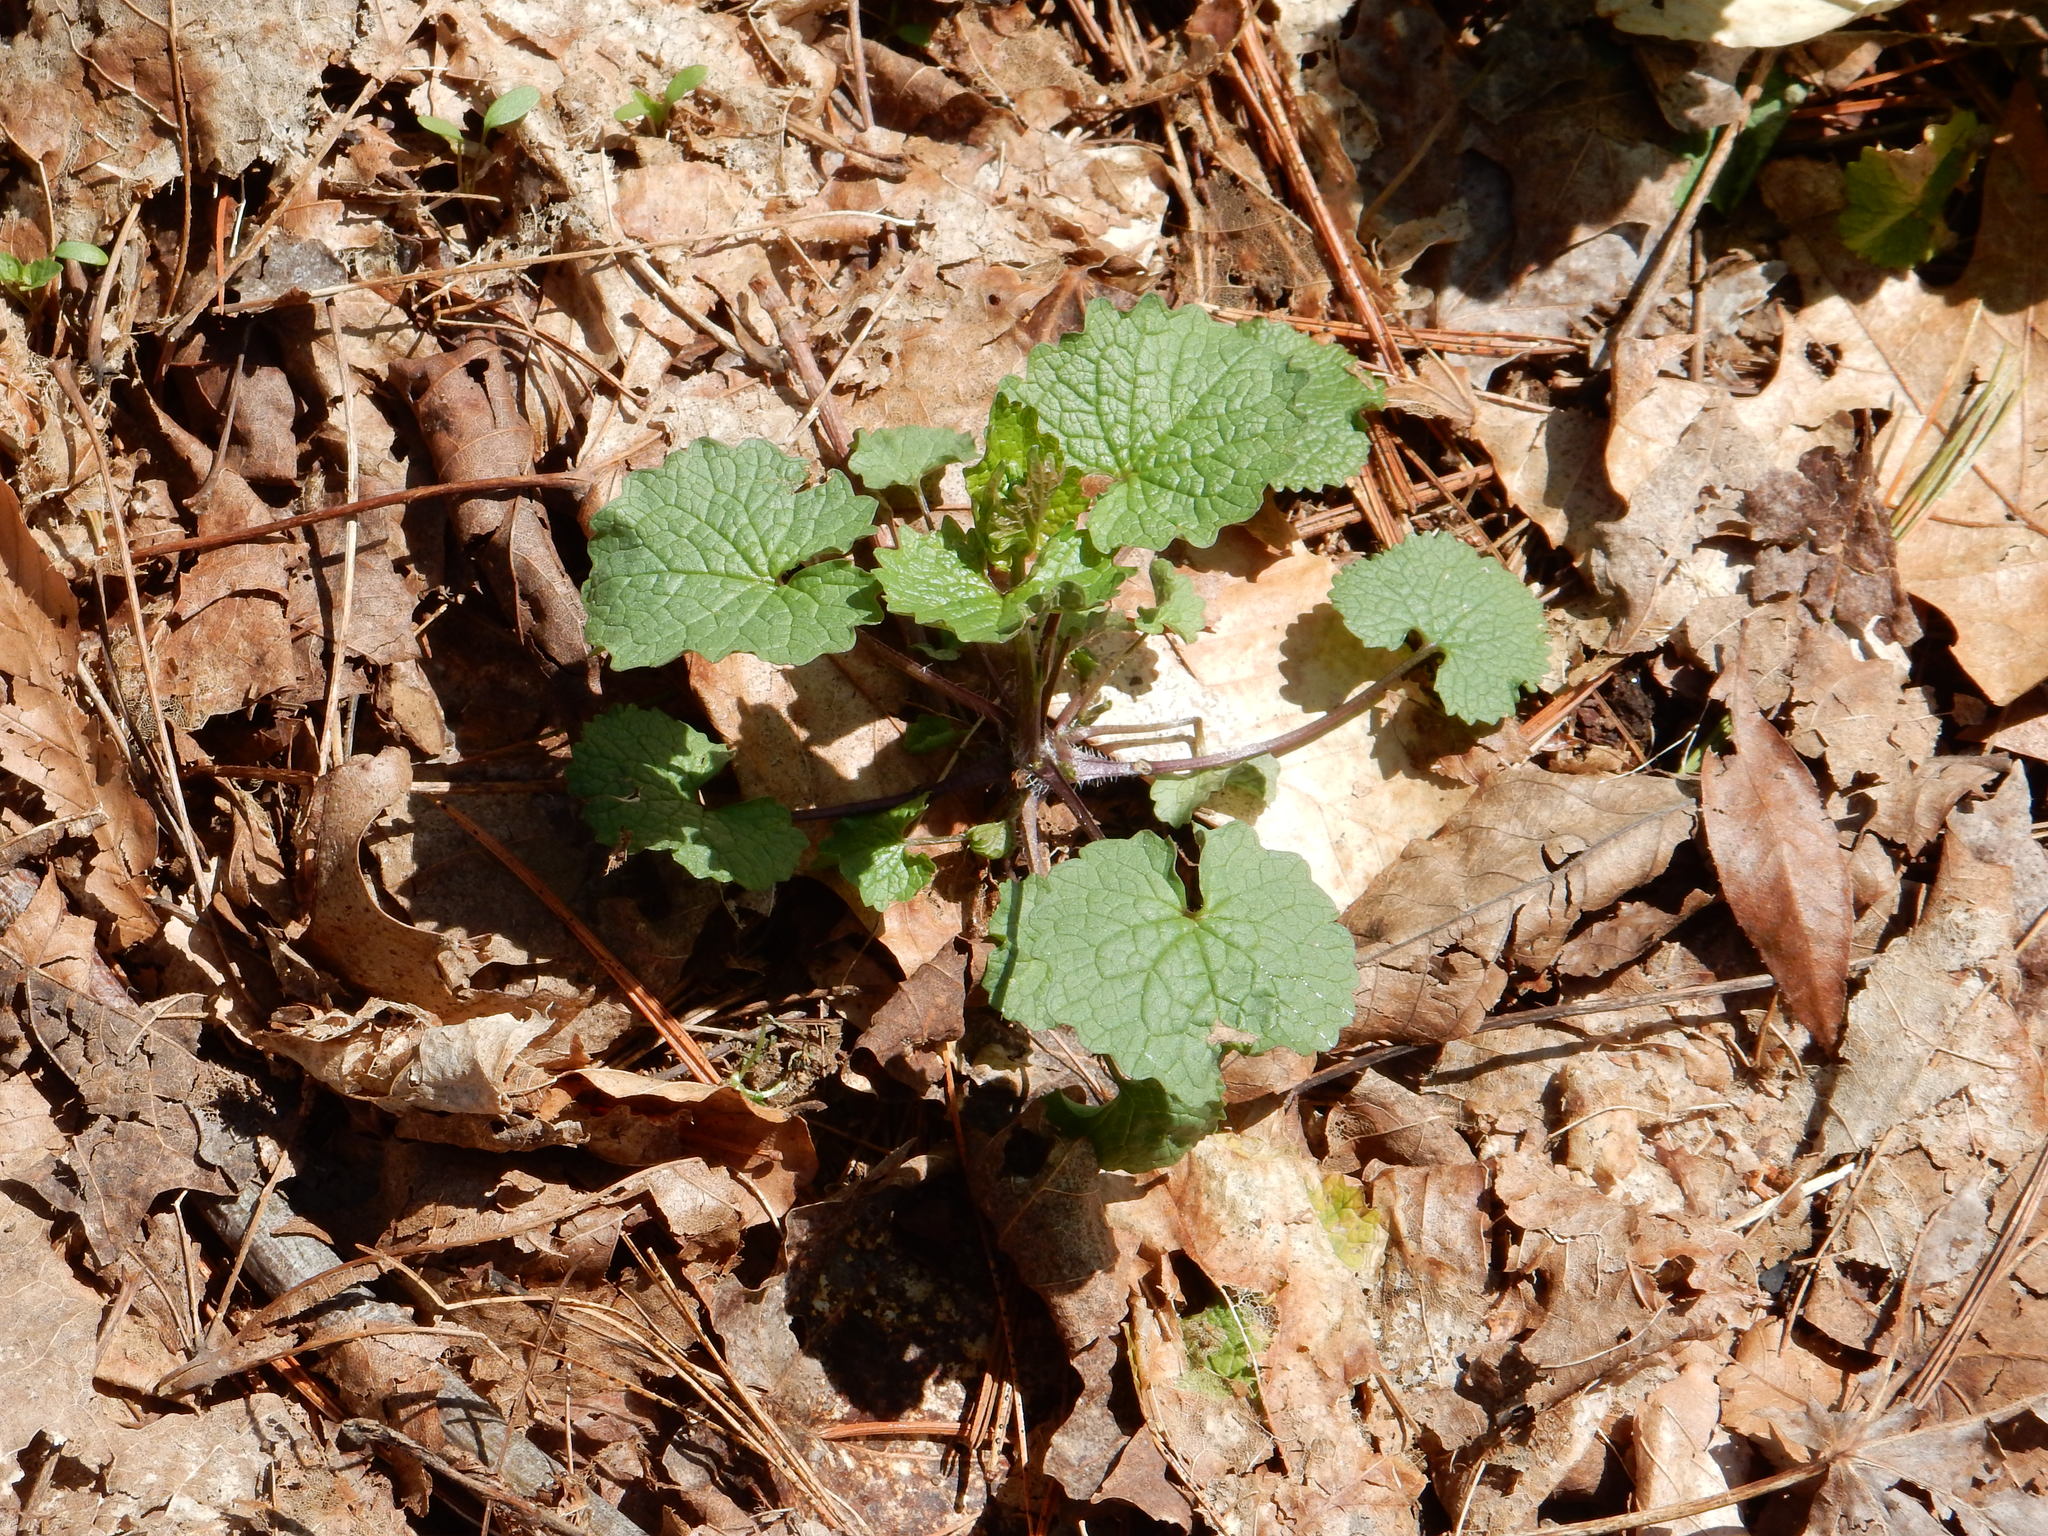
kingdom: Plantae
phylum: Tracheophyta
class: Magnoliopsida
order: Brassicales
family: Brassicaceae
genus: Alliaria
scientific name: Alliaria petiolata
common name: Garlic mustard
